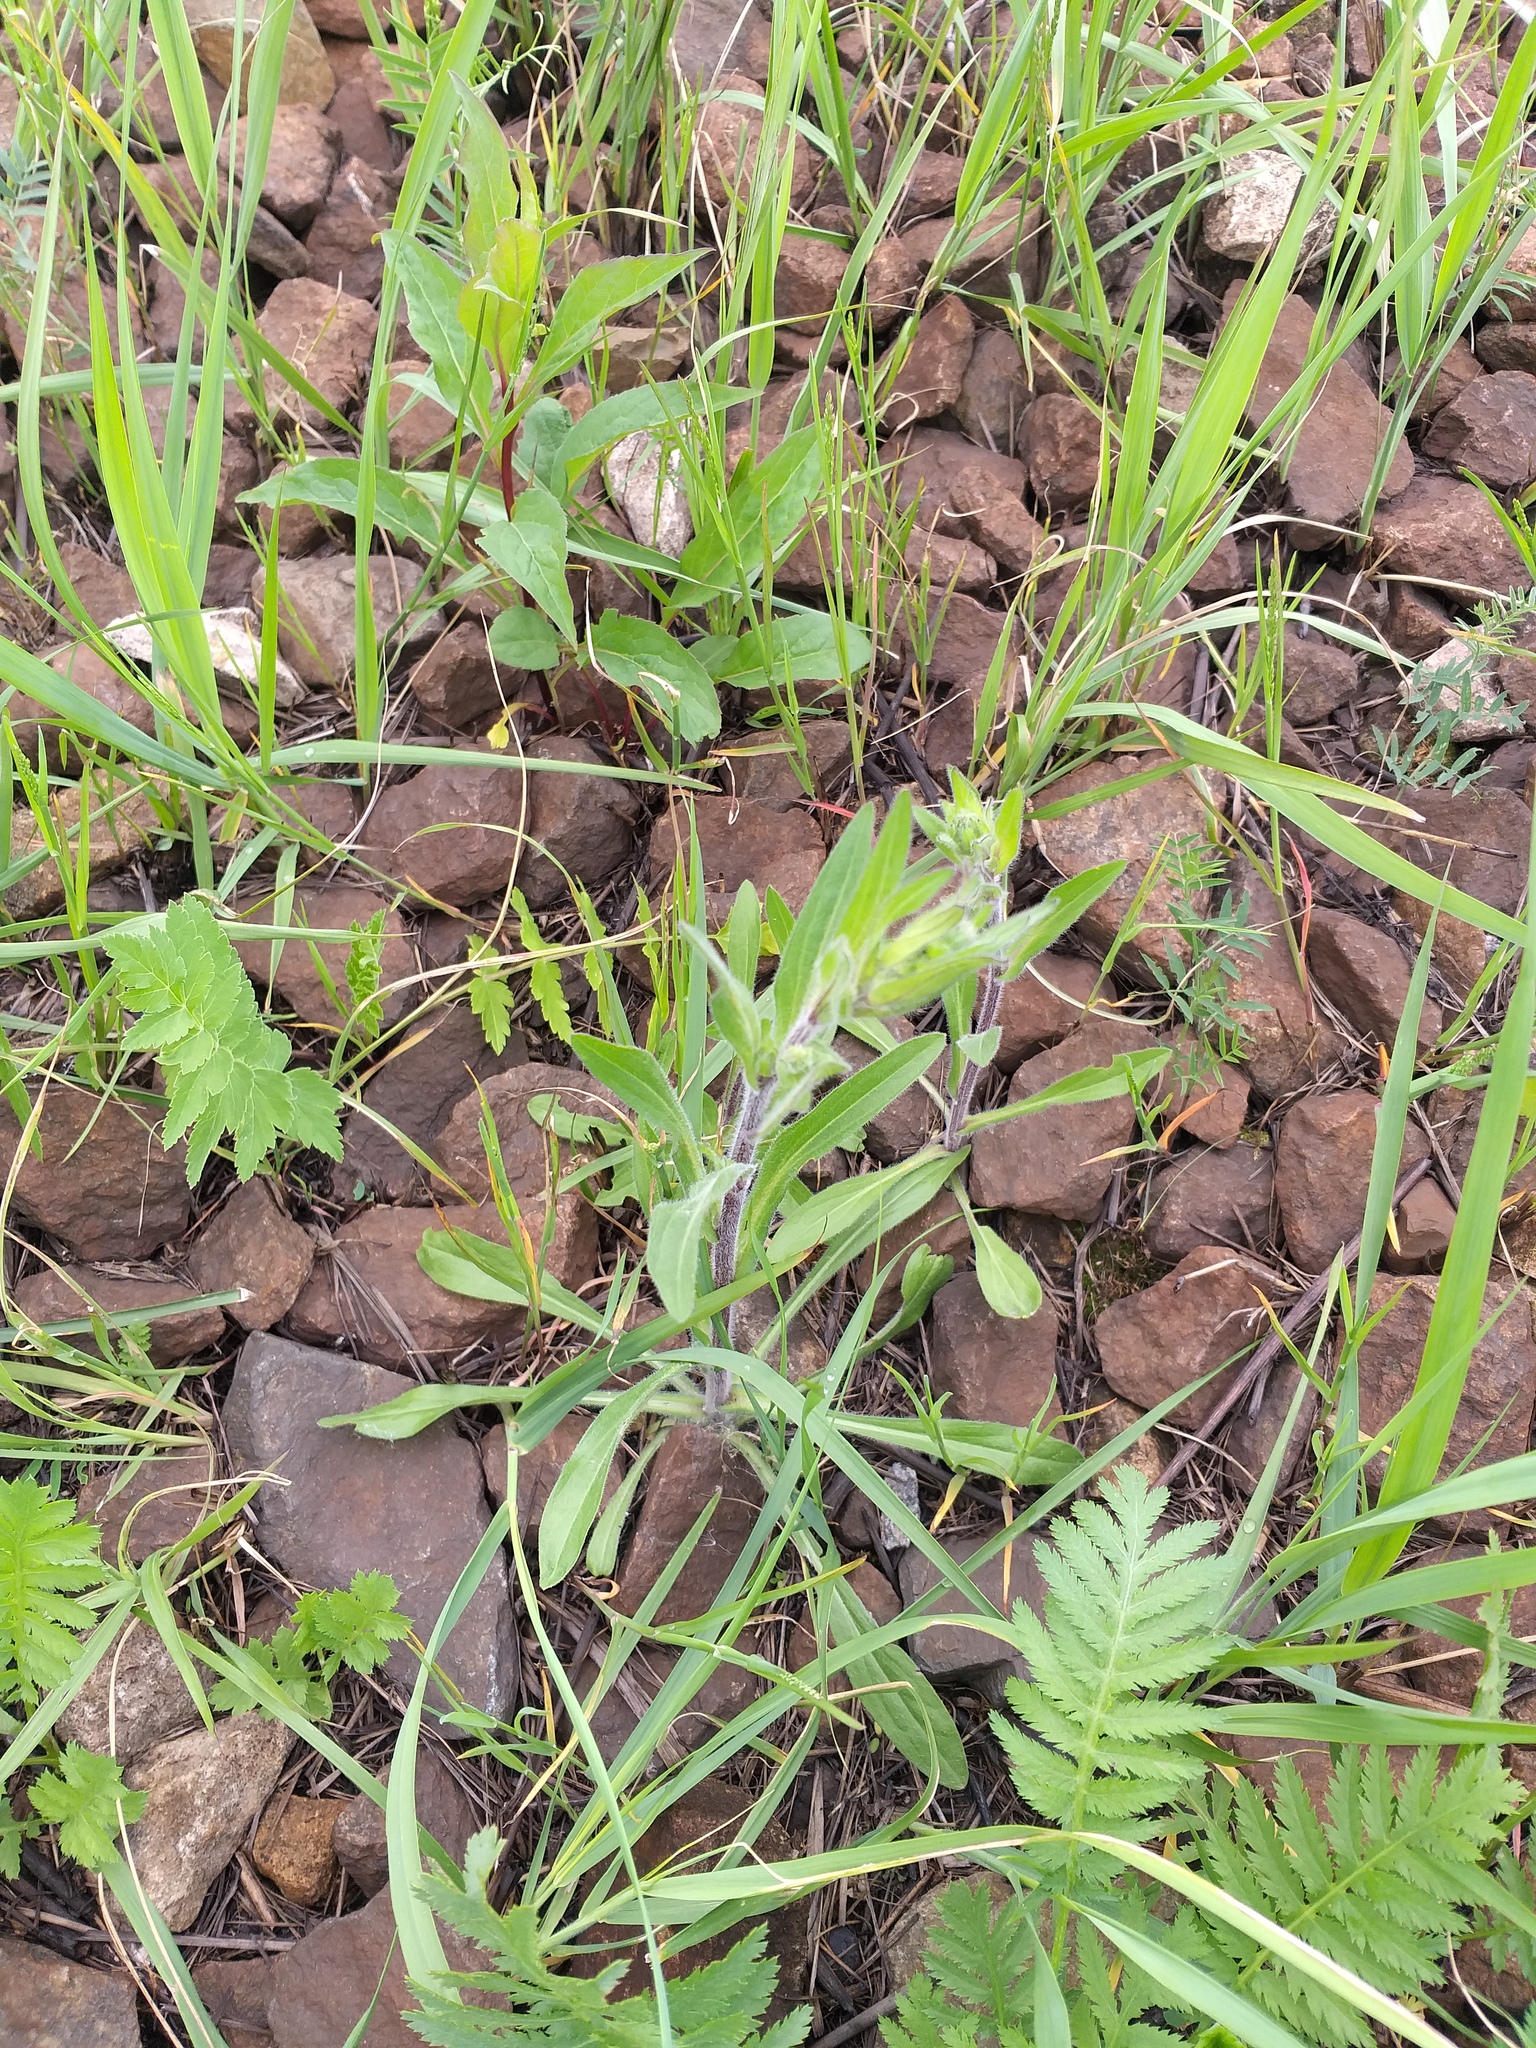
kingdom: Plantae
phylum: Tracheophyta
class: Magnoliopsida
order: Asterales
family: Asteraceae
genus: Erigeron
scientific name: Erigeron acris
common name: Blue fleabane
